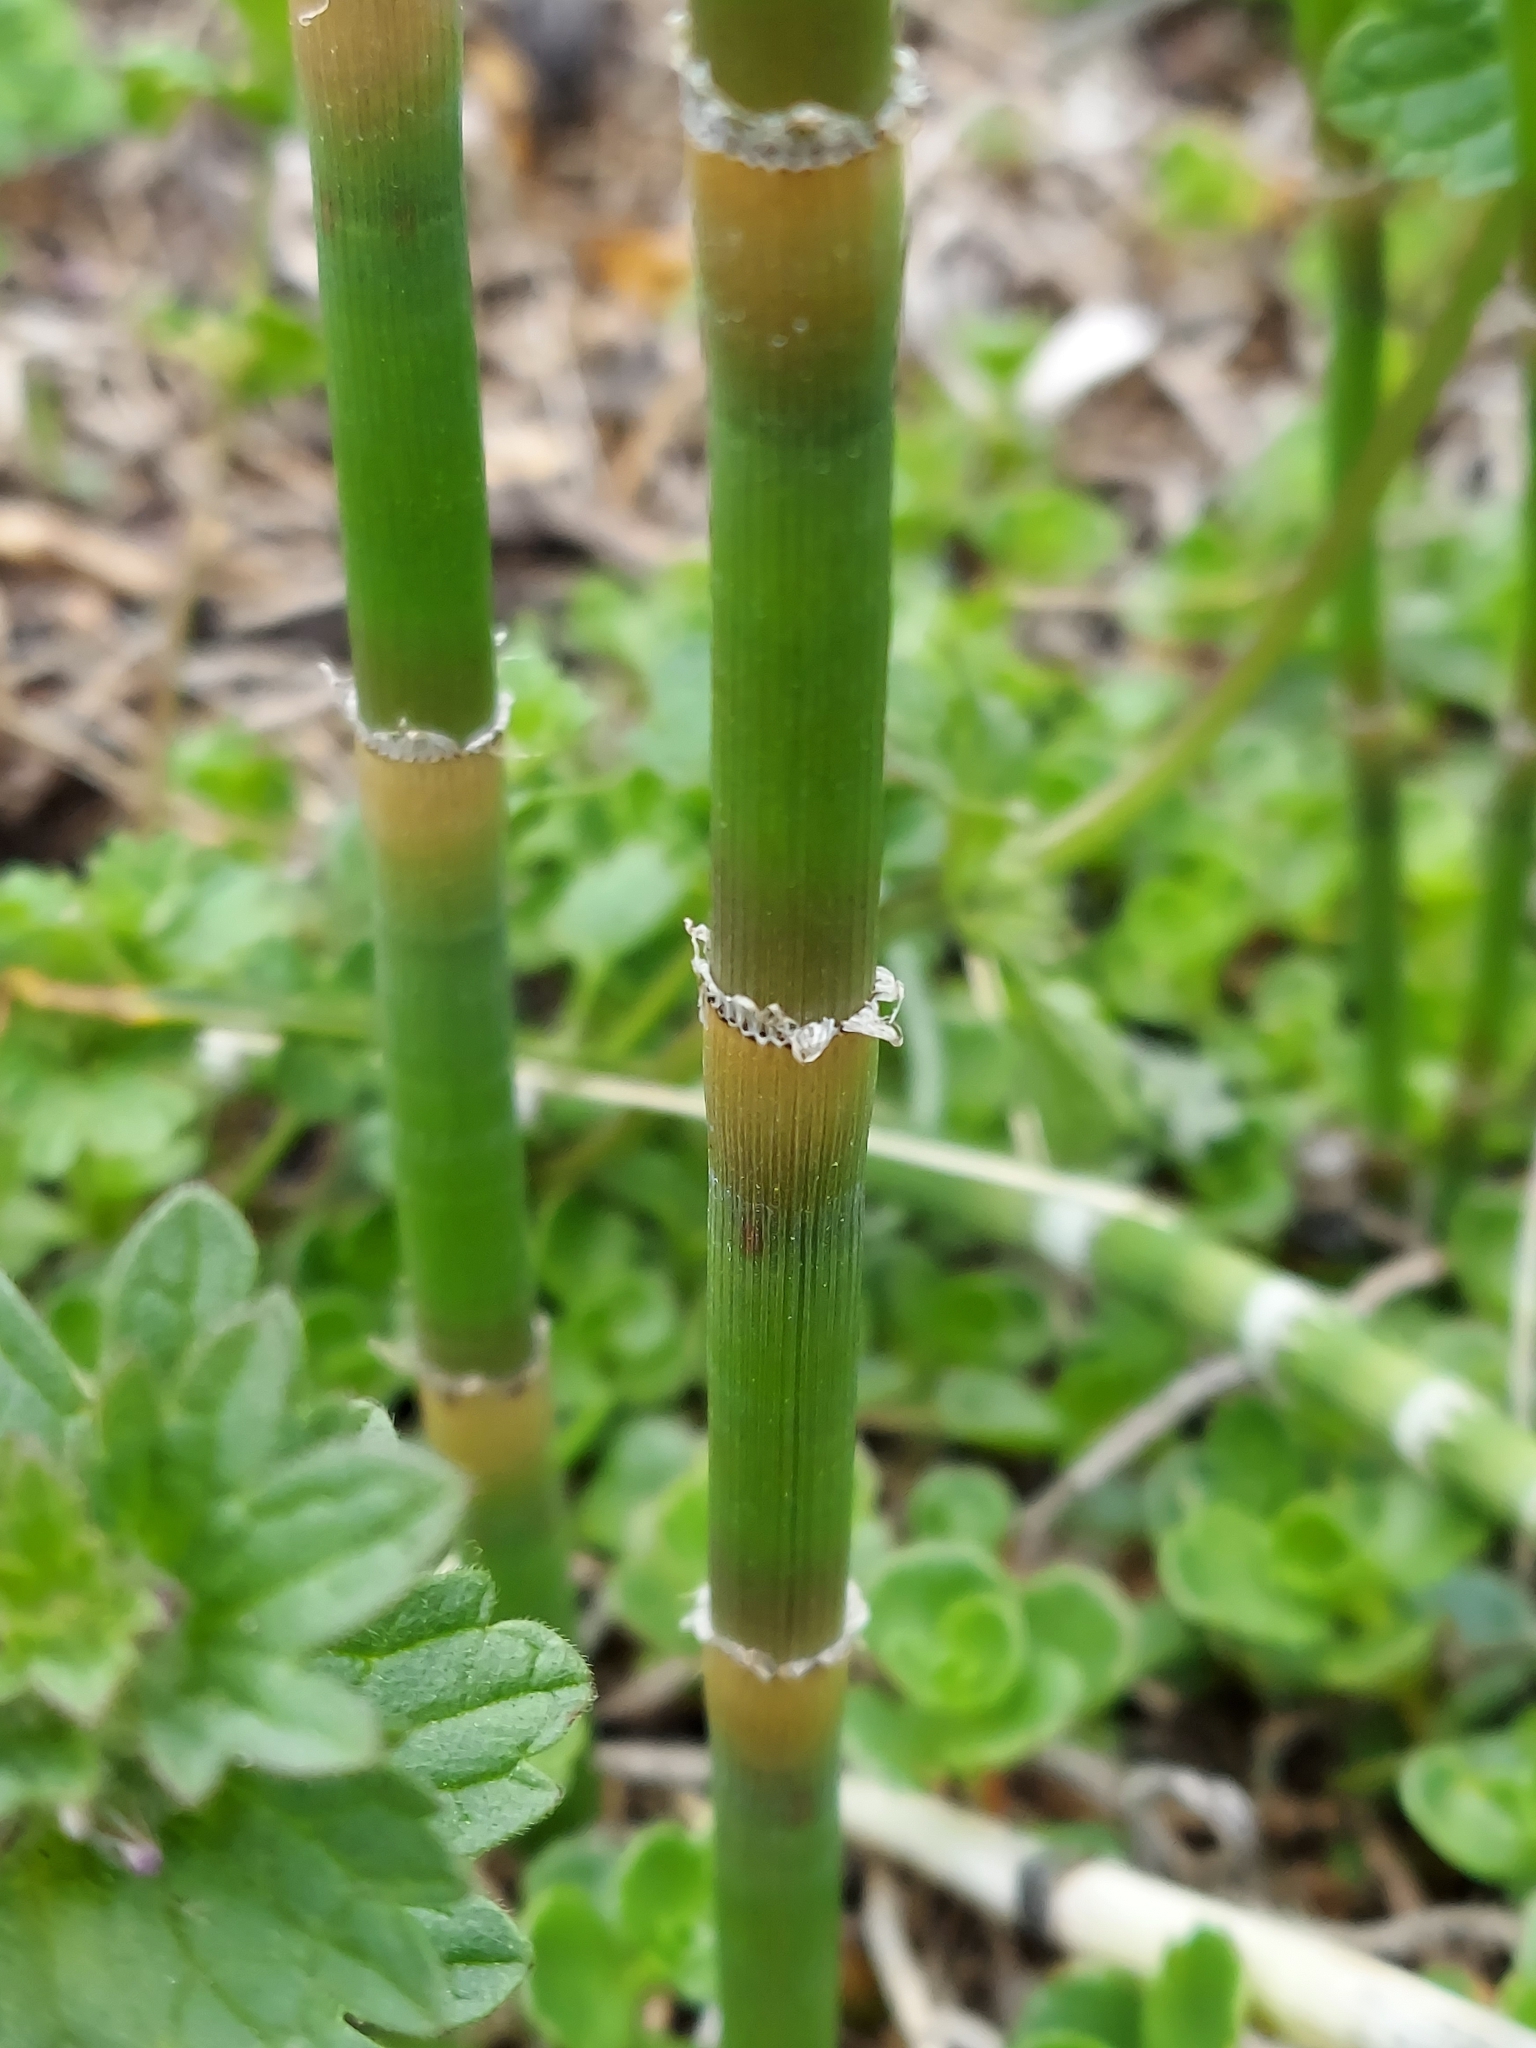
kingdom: Plantae
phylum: Tracheophyta
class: Polypodiopsida
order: Equisetales
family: Equisetaceae
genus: Equisetum
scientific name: Equisetum hyemale
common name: Rough horsetail
